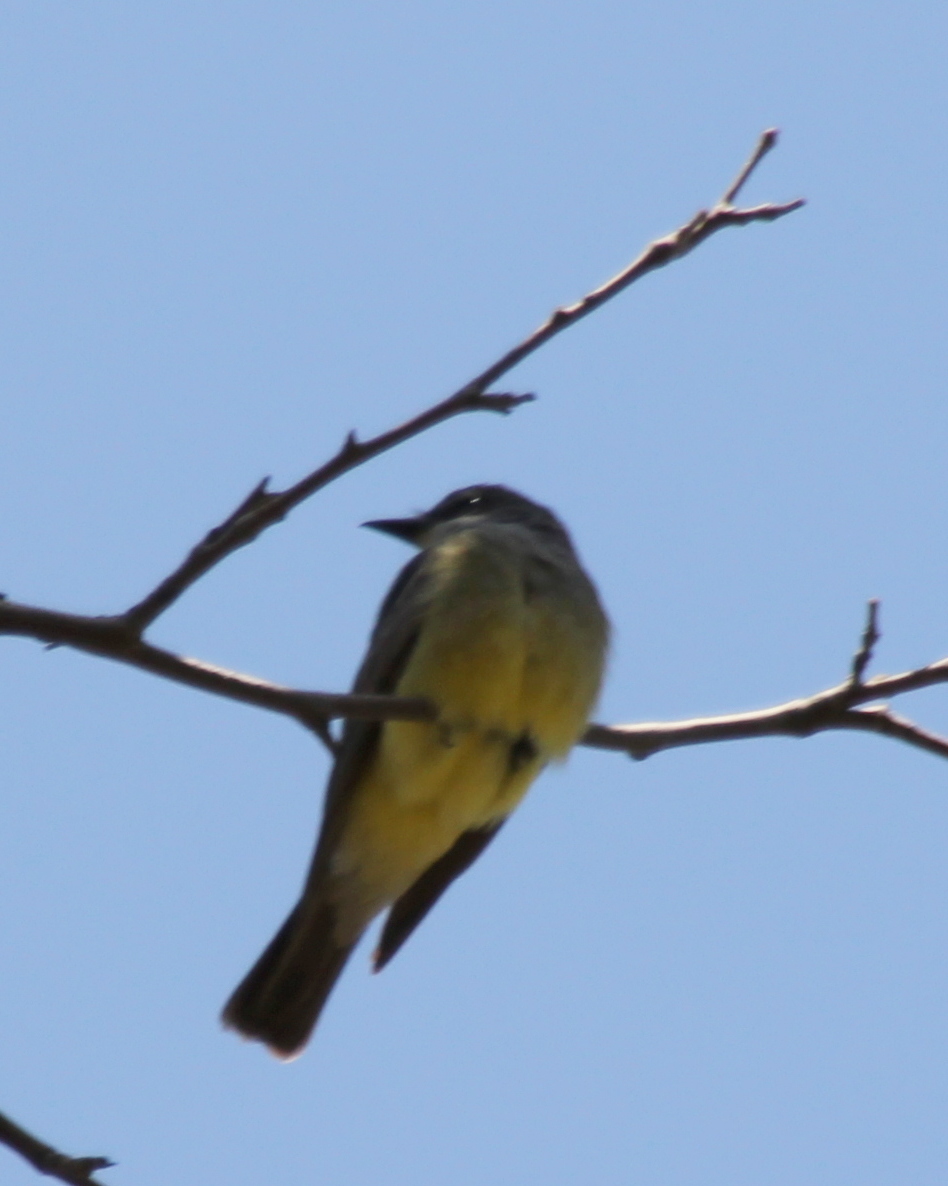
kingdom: Animalia
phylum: Chordata
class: Aves
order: Passeriformes
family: Tyrannidae
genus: Tyrannus
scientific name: Tyrannus vociferans
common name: Cassin's kingbird
